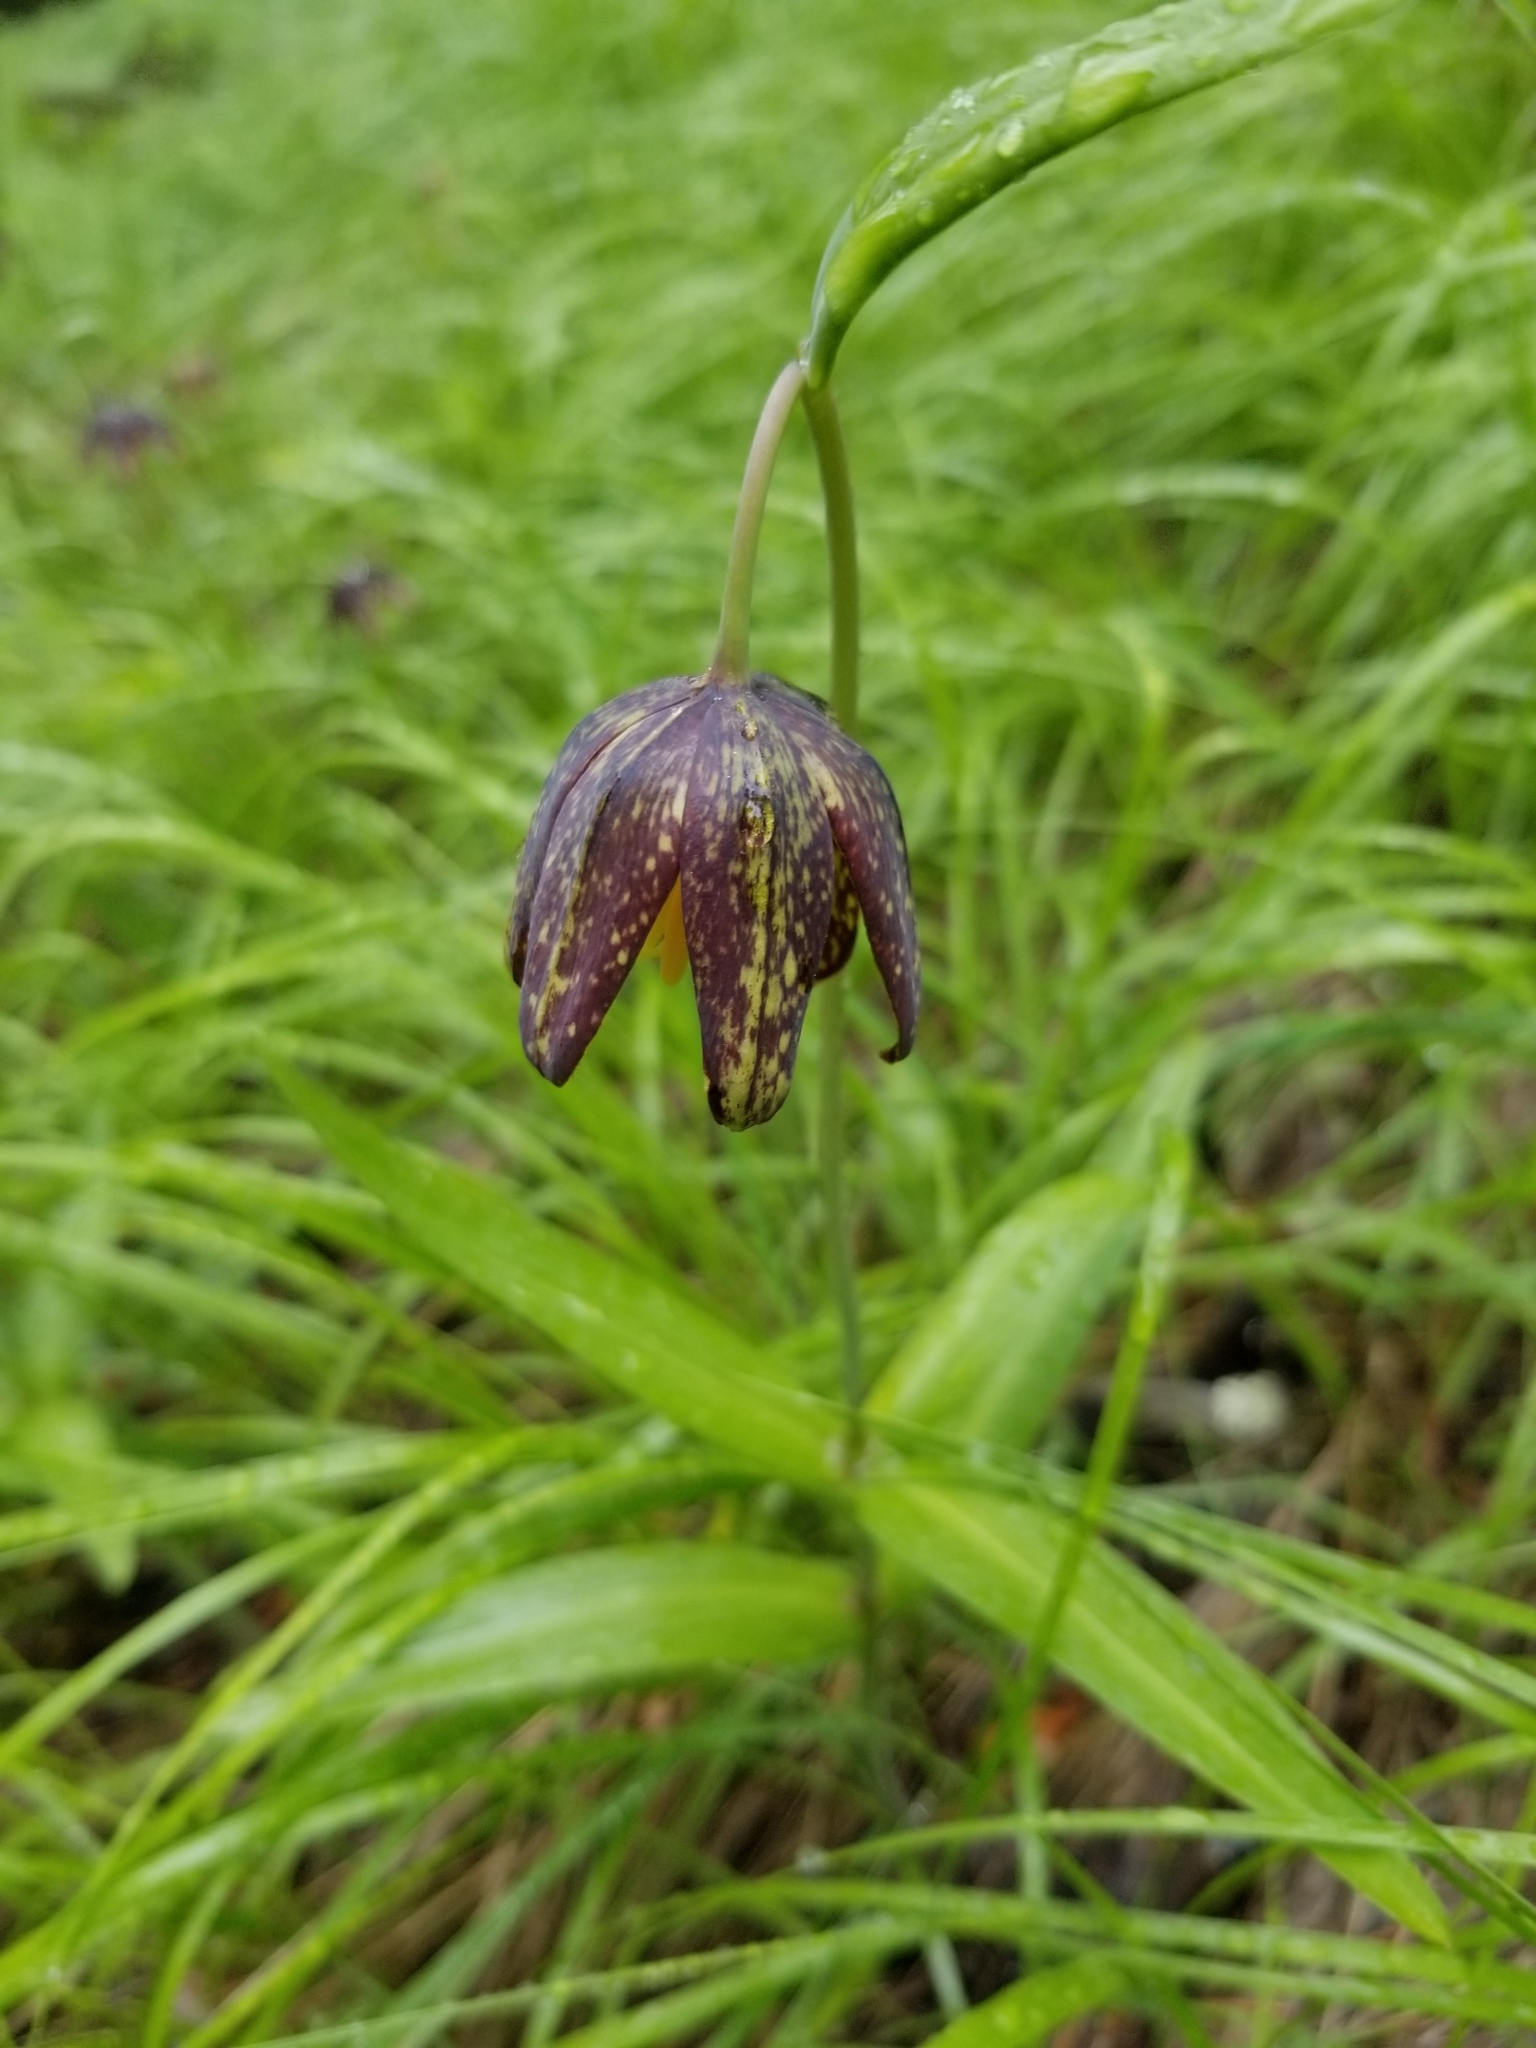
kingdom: Plantae
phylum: Tracheophyta
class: Liliopsida
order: Liliales
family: Liliaceae
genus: Fritillaria
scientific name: Fritillaria affinis
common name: Ojai fritillary
